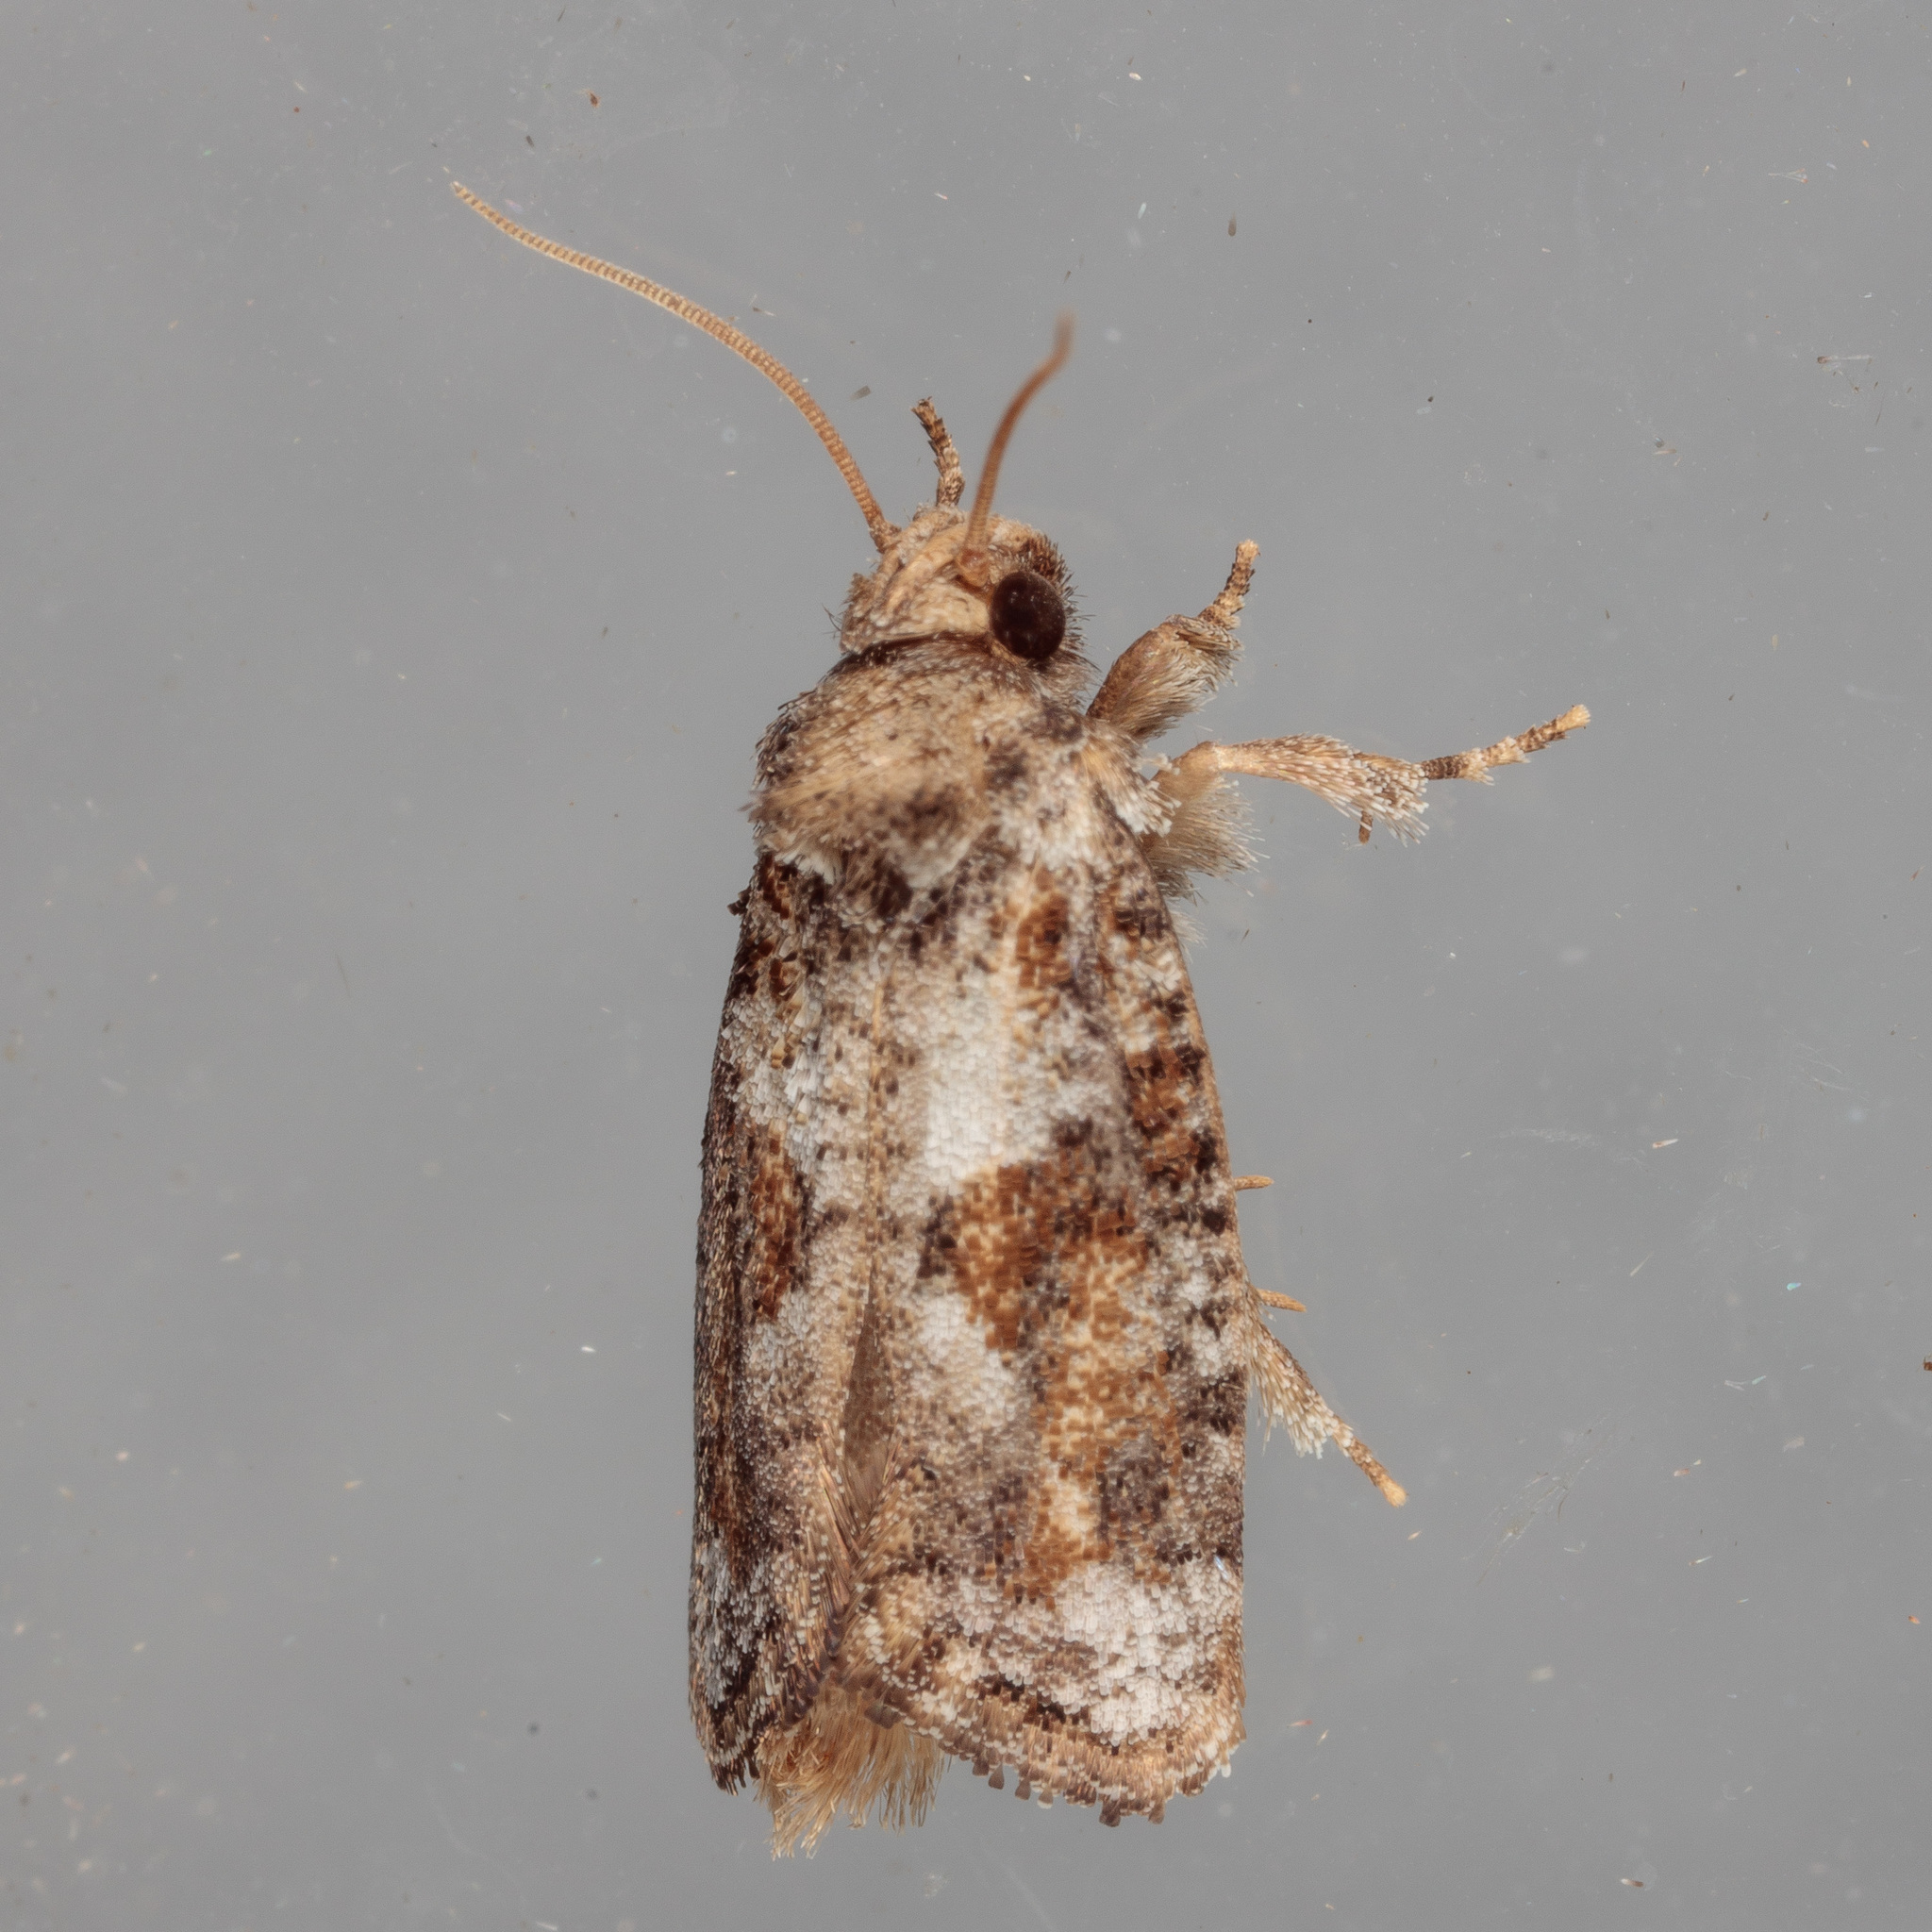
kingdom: Animalia
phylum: Arthropoda
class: Insecta
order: Lepidoptera
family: Tineidae
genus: Acrolophus
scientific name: Acrolophus piger
